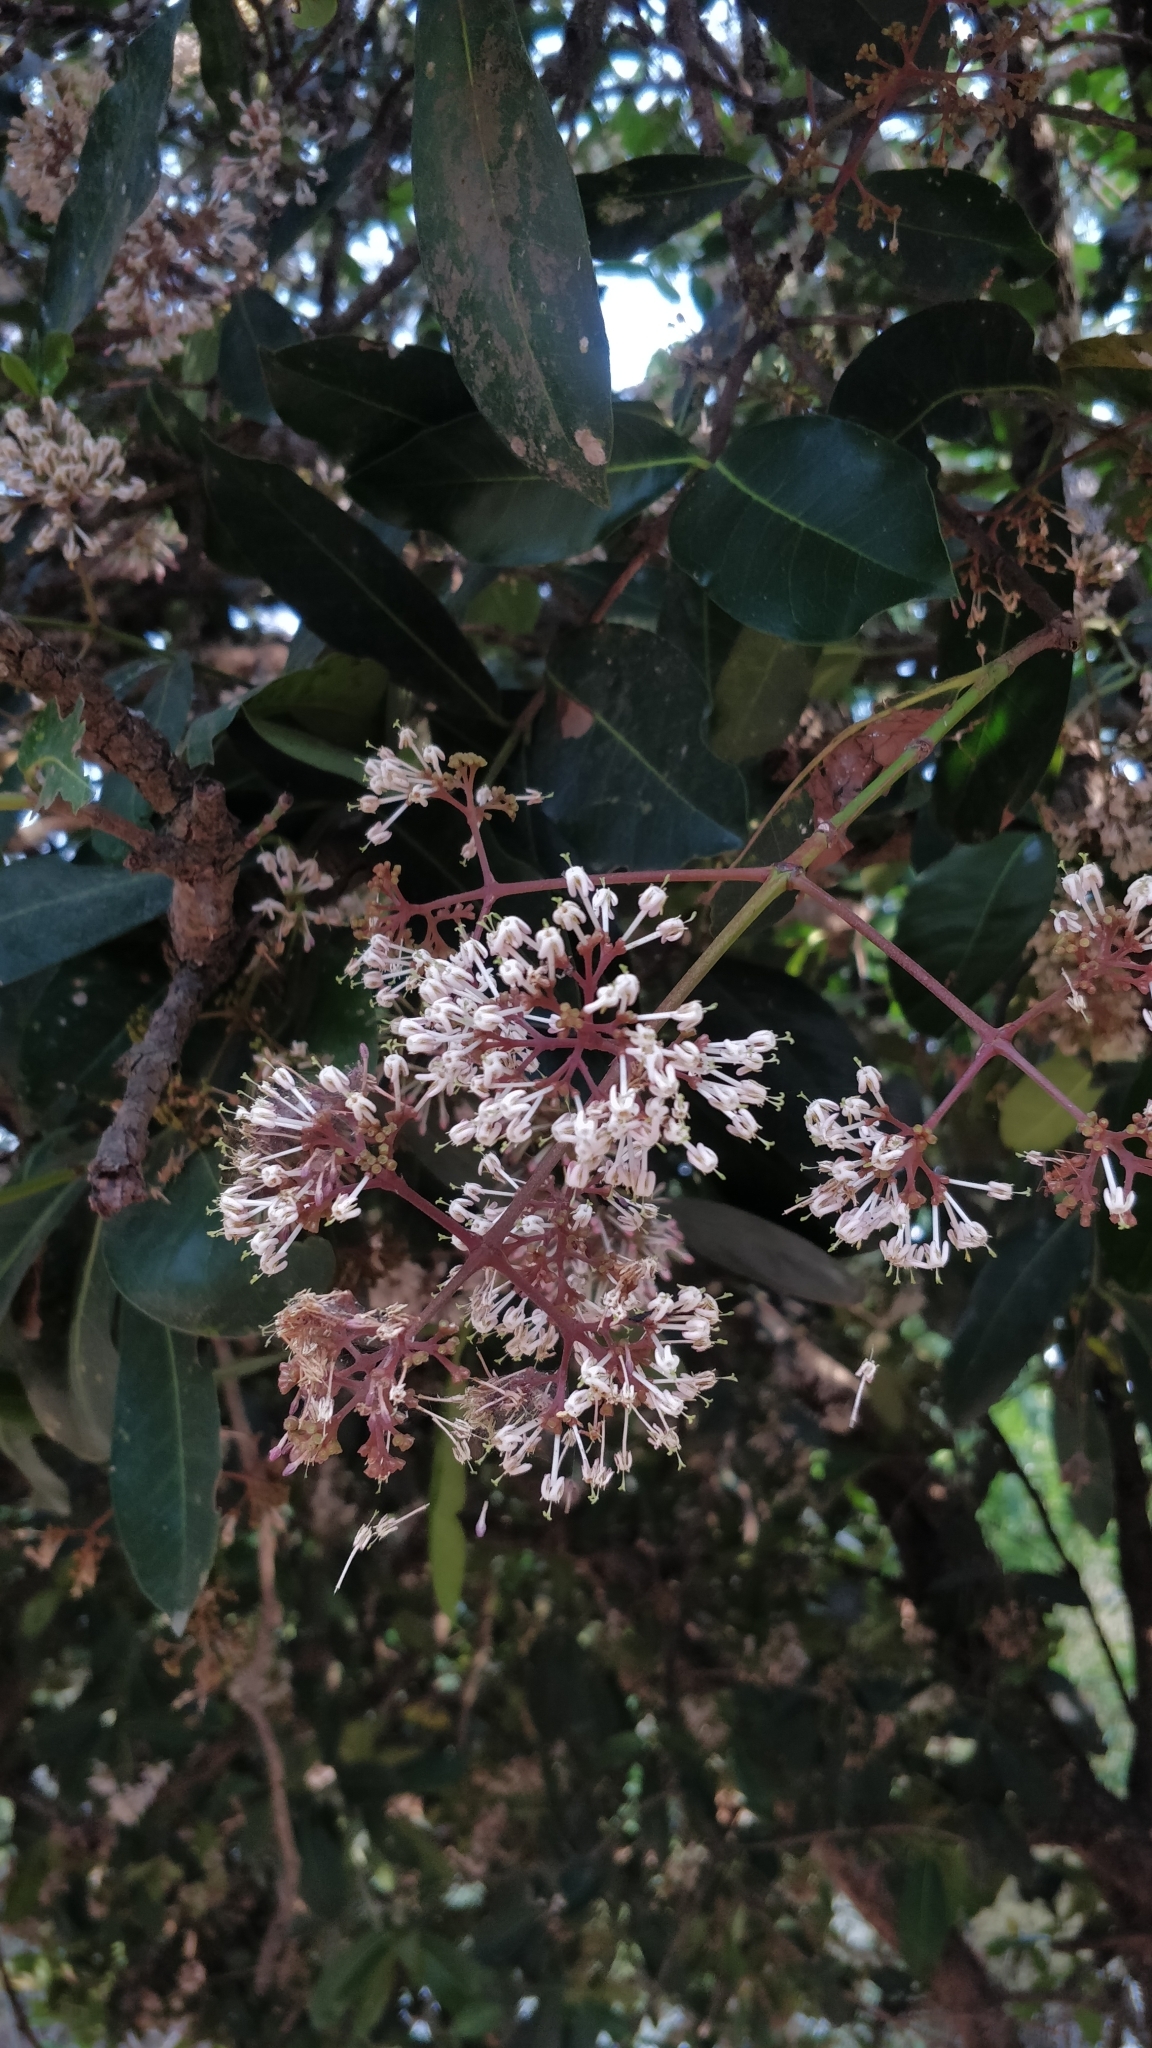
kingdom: Plantae
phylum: Tracheophyta
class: Magnoliopsida
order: Gentianales
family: Rubiaceae
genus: Ixora
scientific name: Ixora brachiata
